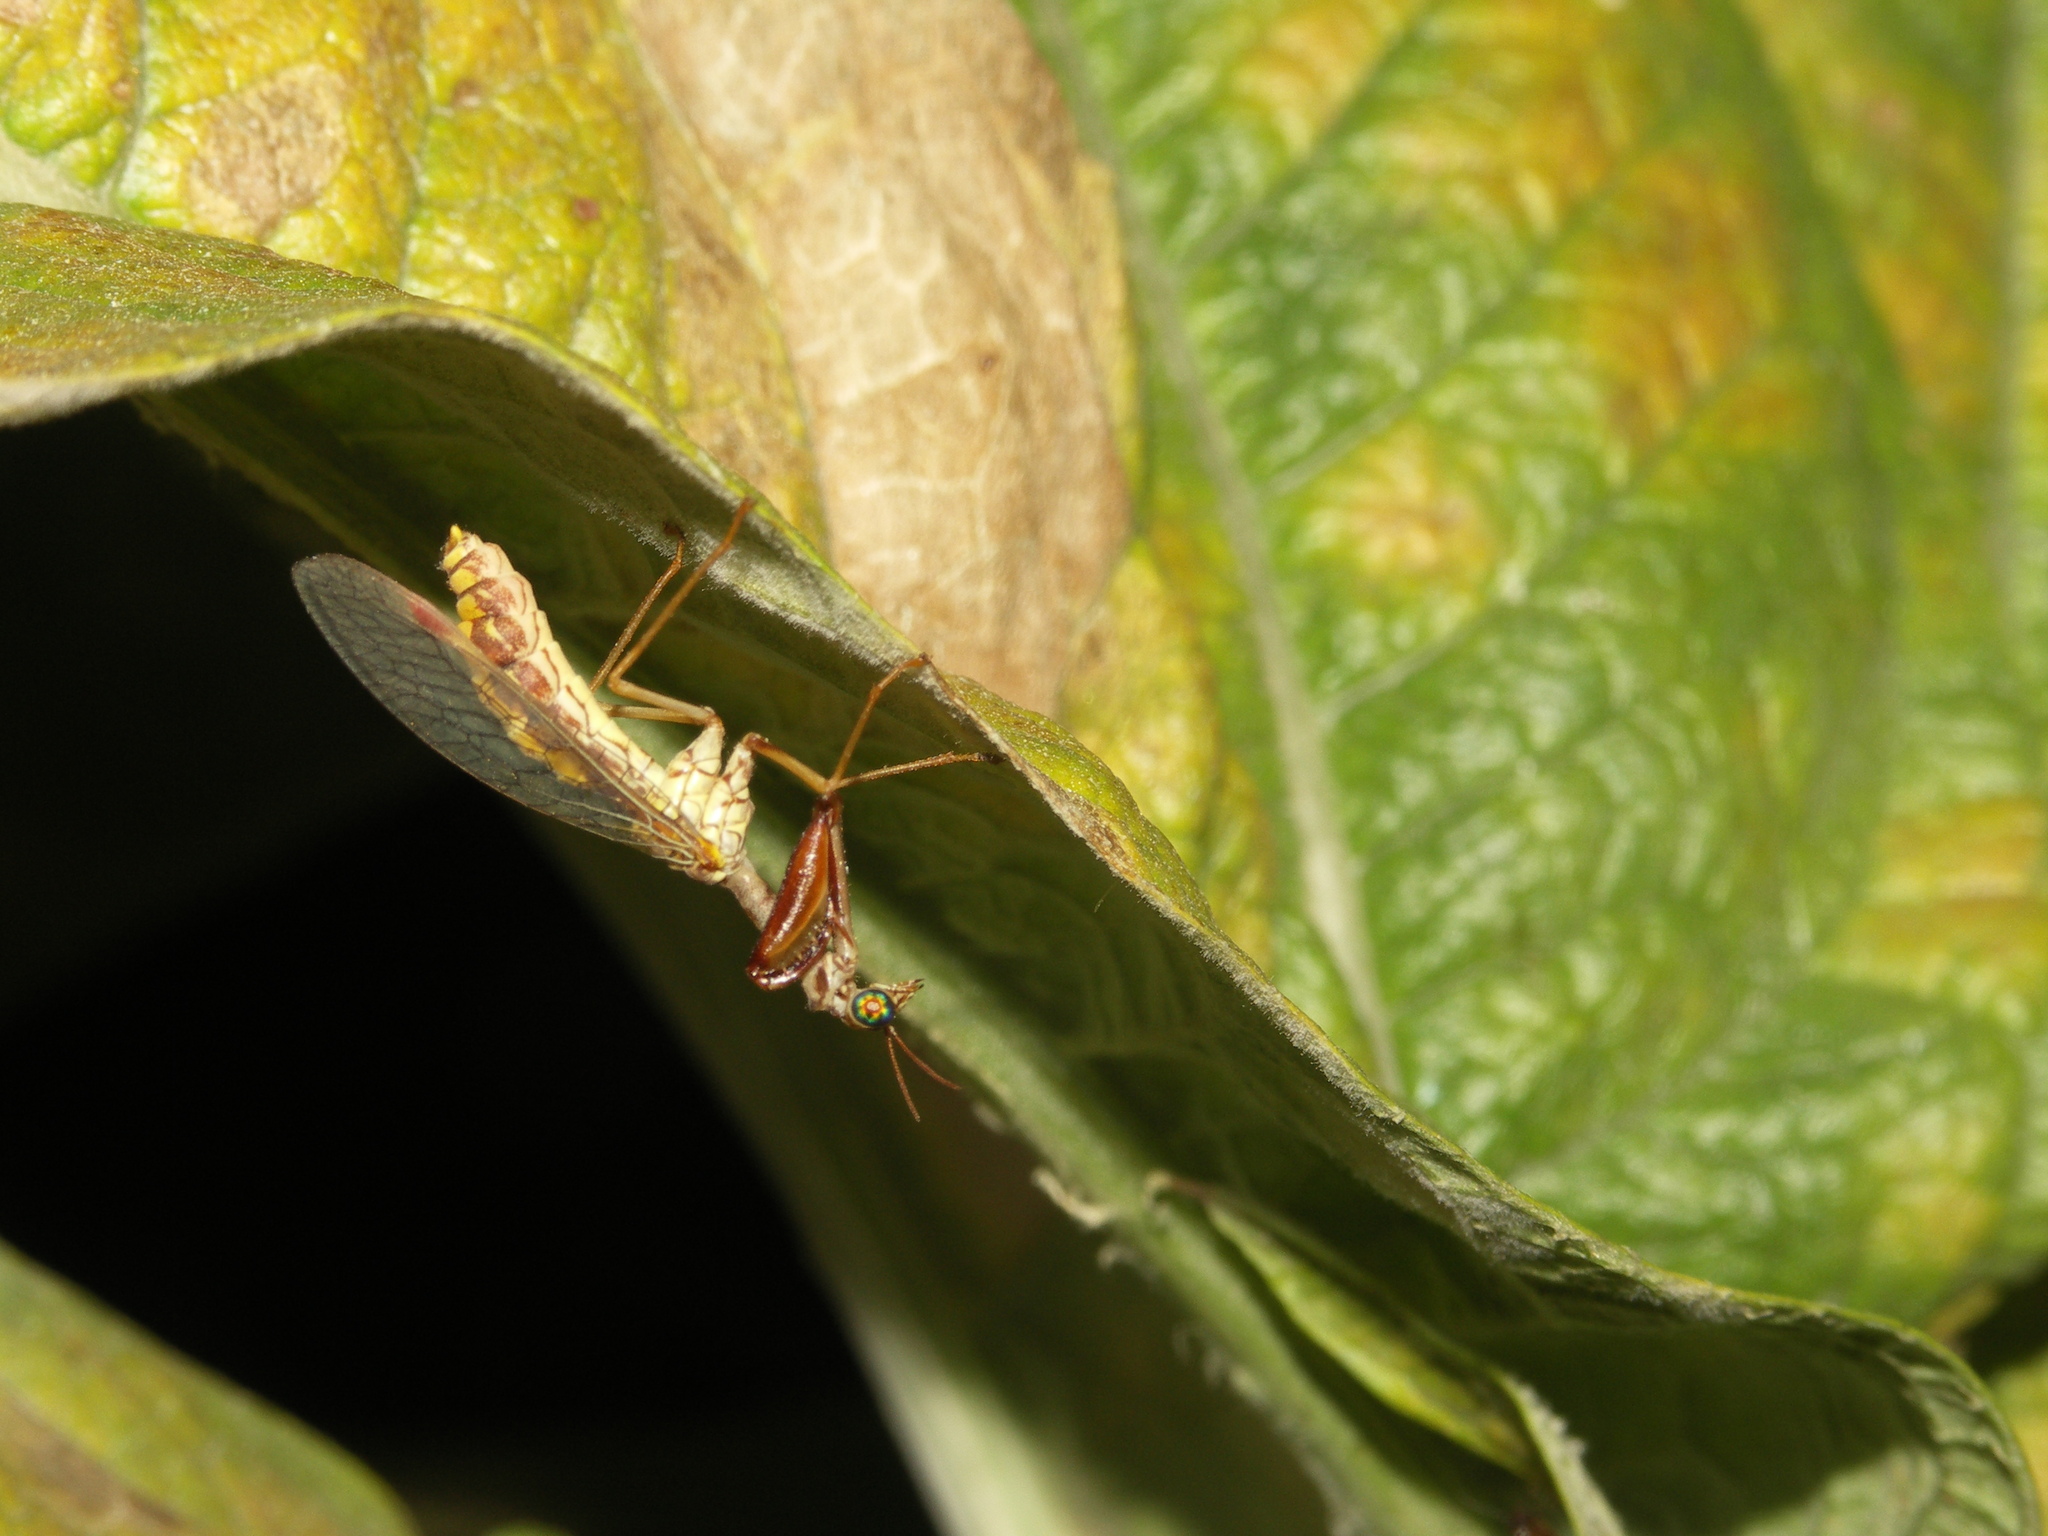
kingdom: Animalia
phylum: Arthropoda
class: Insecta
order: Neuroptera
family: Mantispidae
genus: Mantispa
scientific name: Mantispa styriaca
